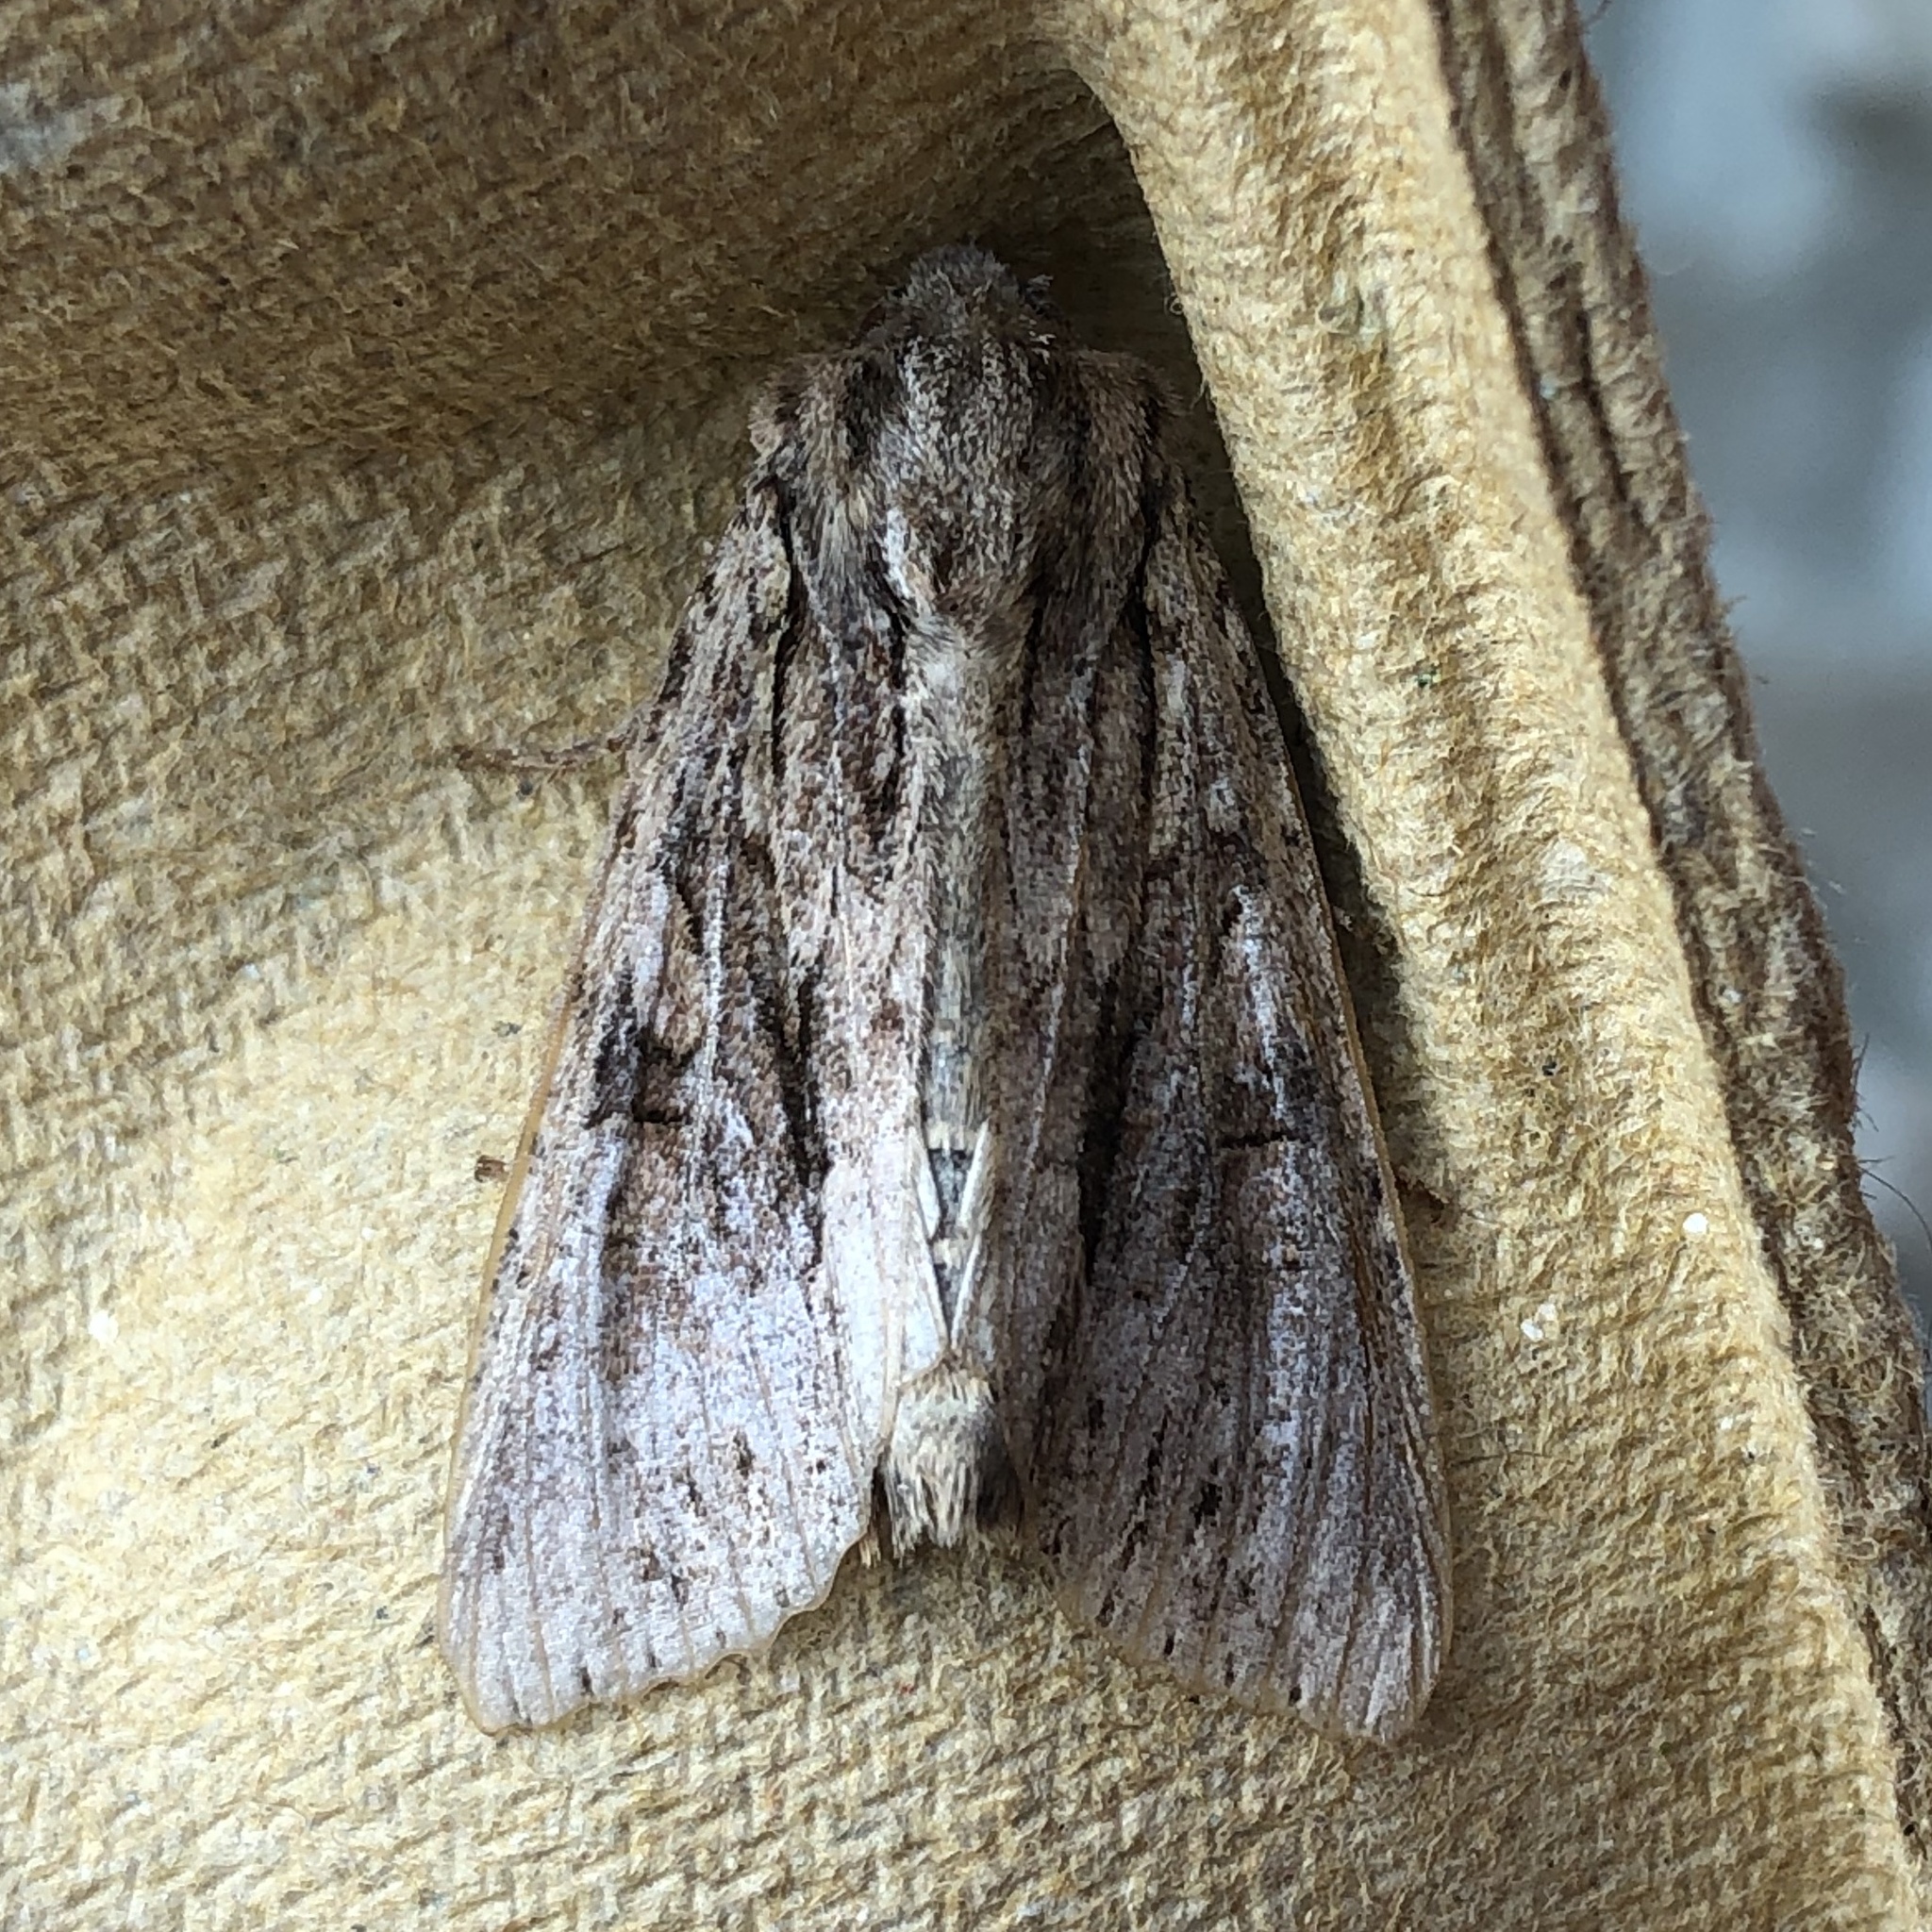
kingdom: Animalia
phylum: Arthropoda
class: Insecta
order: Lepidoptera
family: Noctuidae
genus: Apamea
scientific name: Apamea monoglypha
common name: Dark arches
